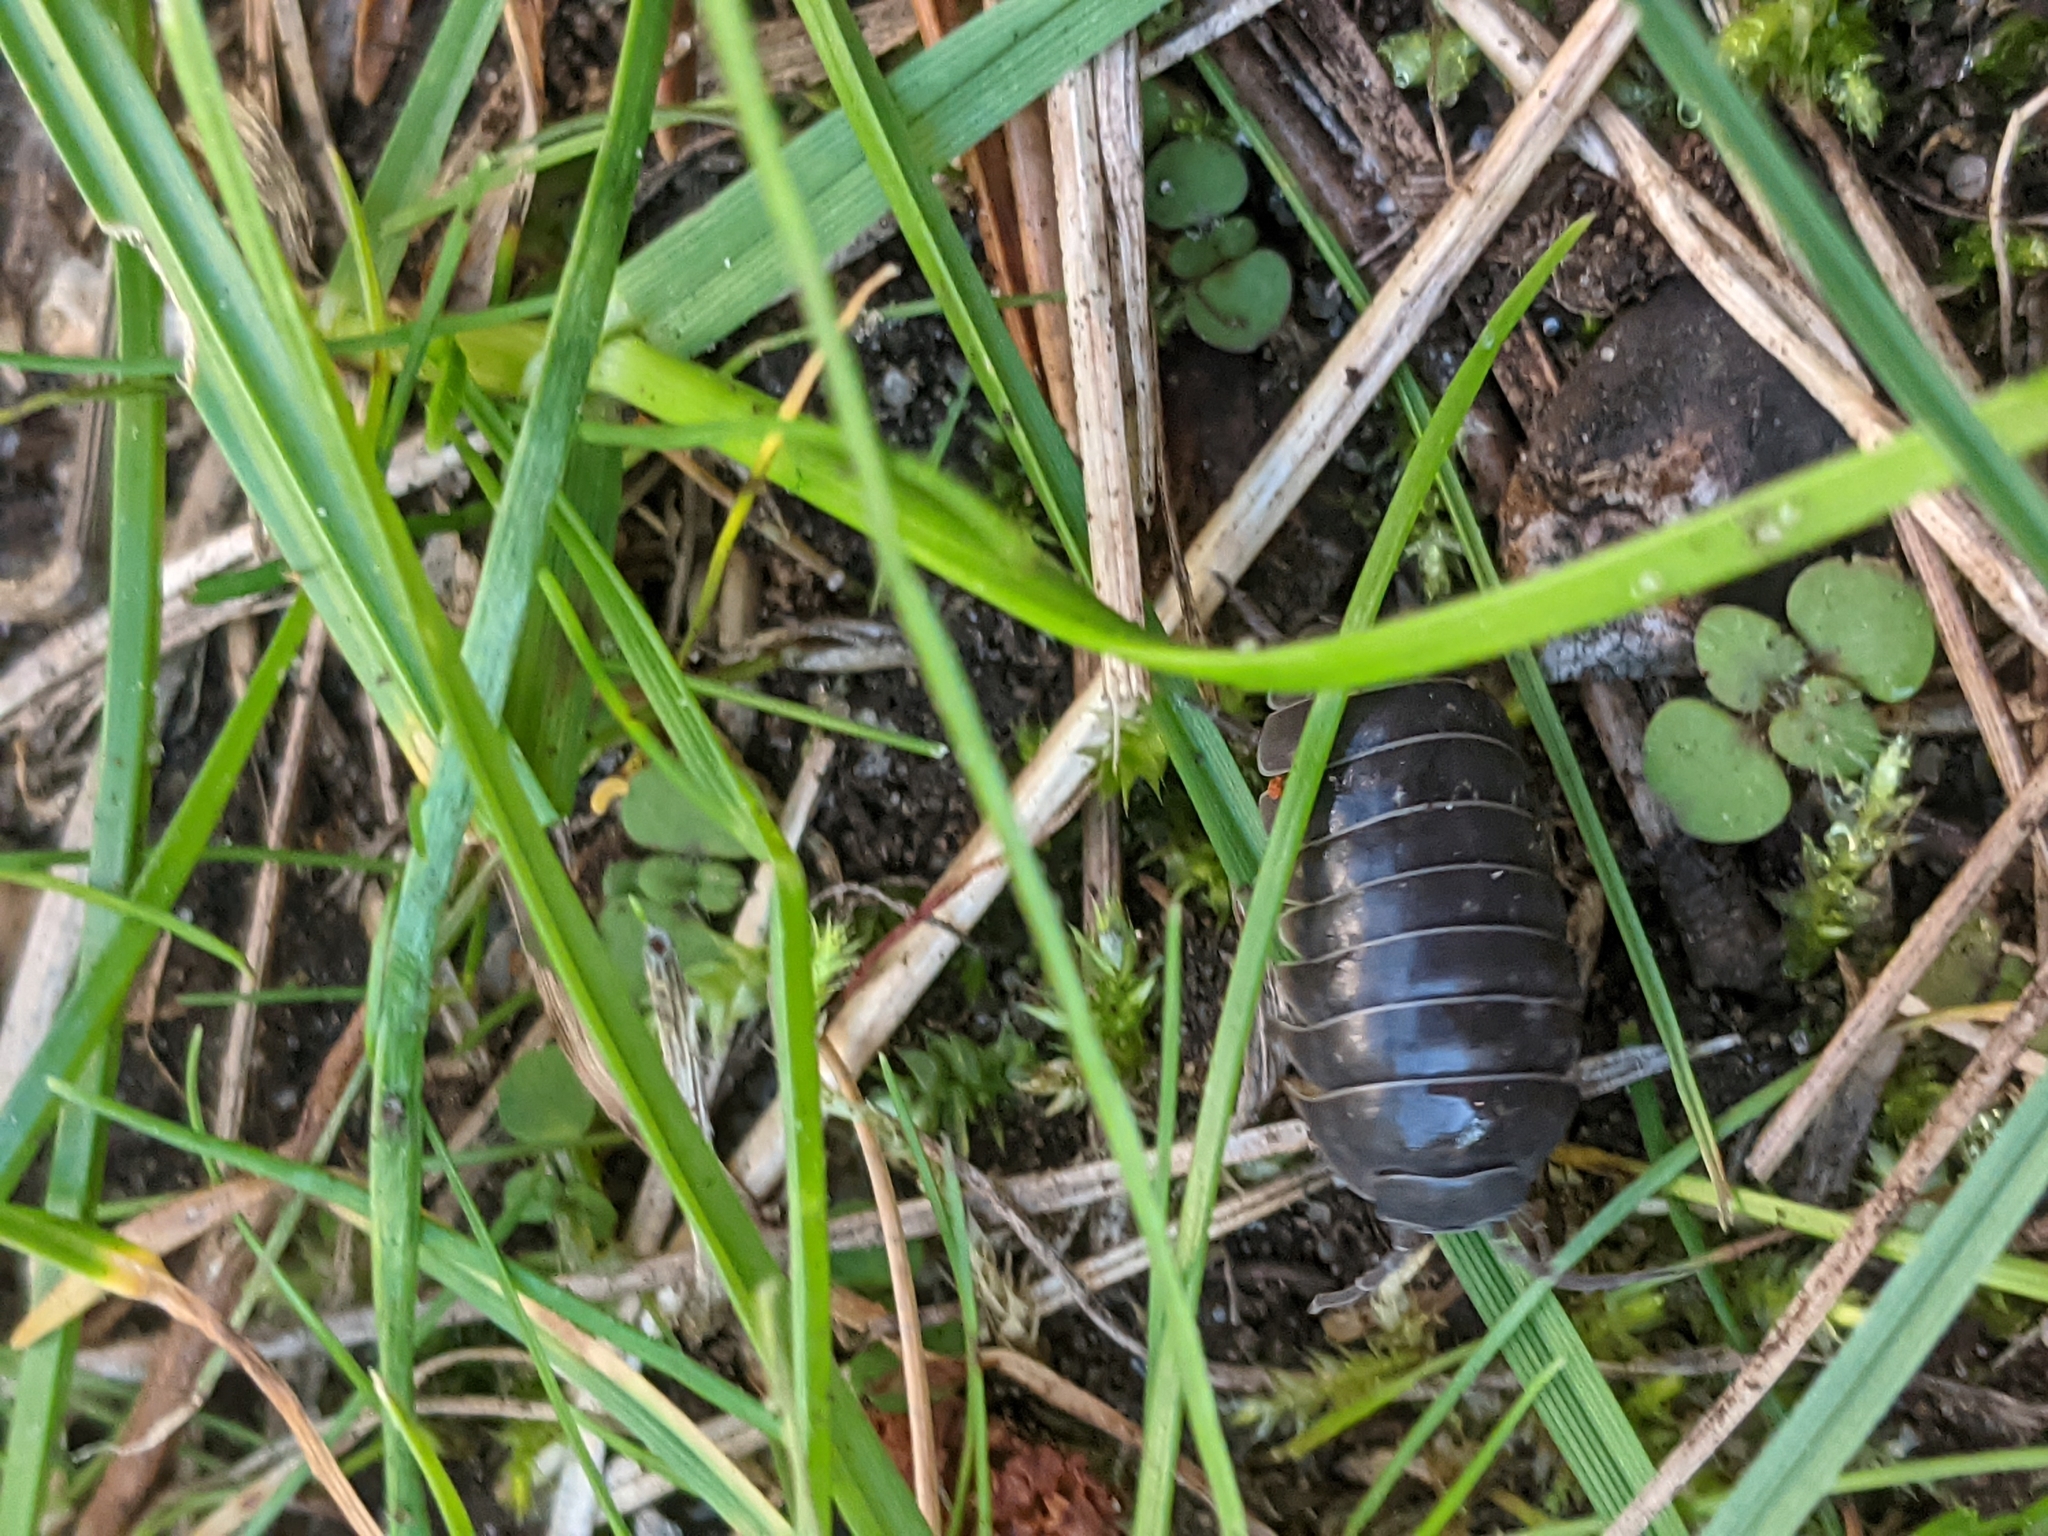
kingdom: Animalia
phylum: Arthropoda
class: Malacostraca
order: Isopoda
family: Armadillidiidae
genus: Armadillidium
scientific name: Armadillidium vulgare
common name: Common pill woodlouse
